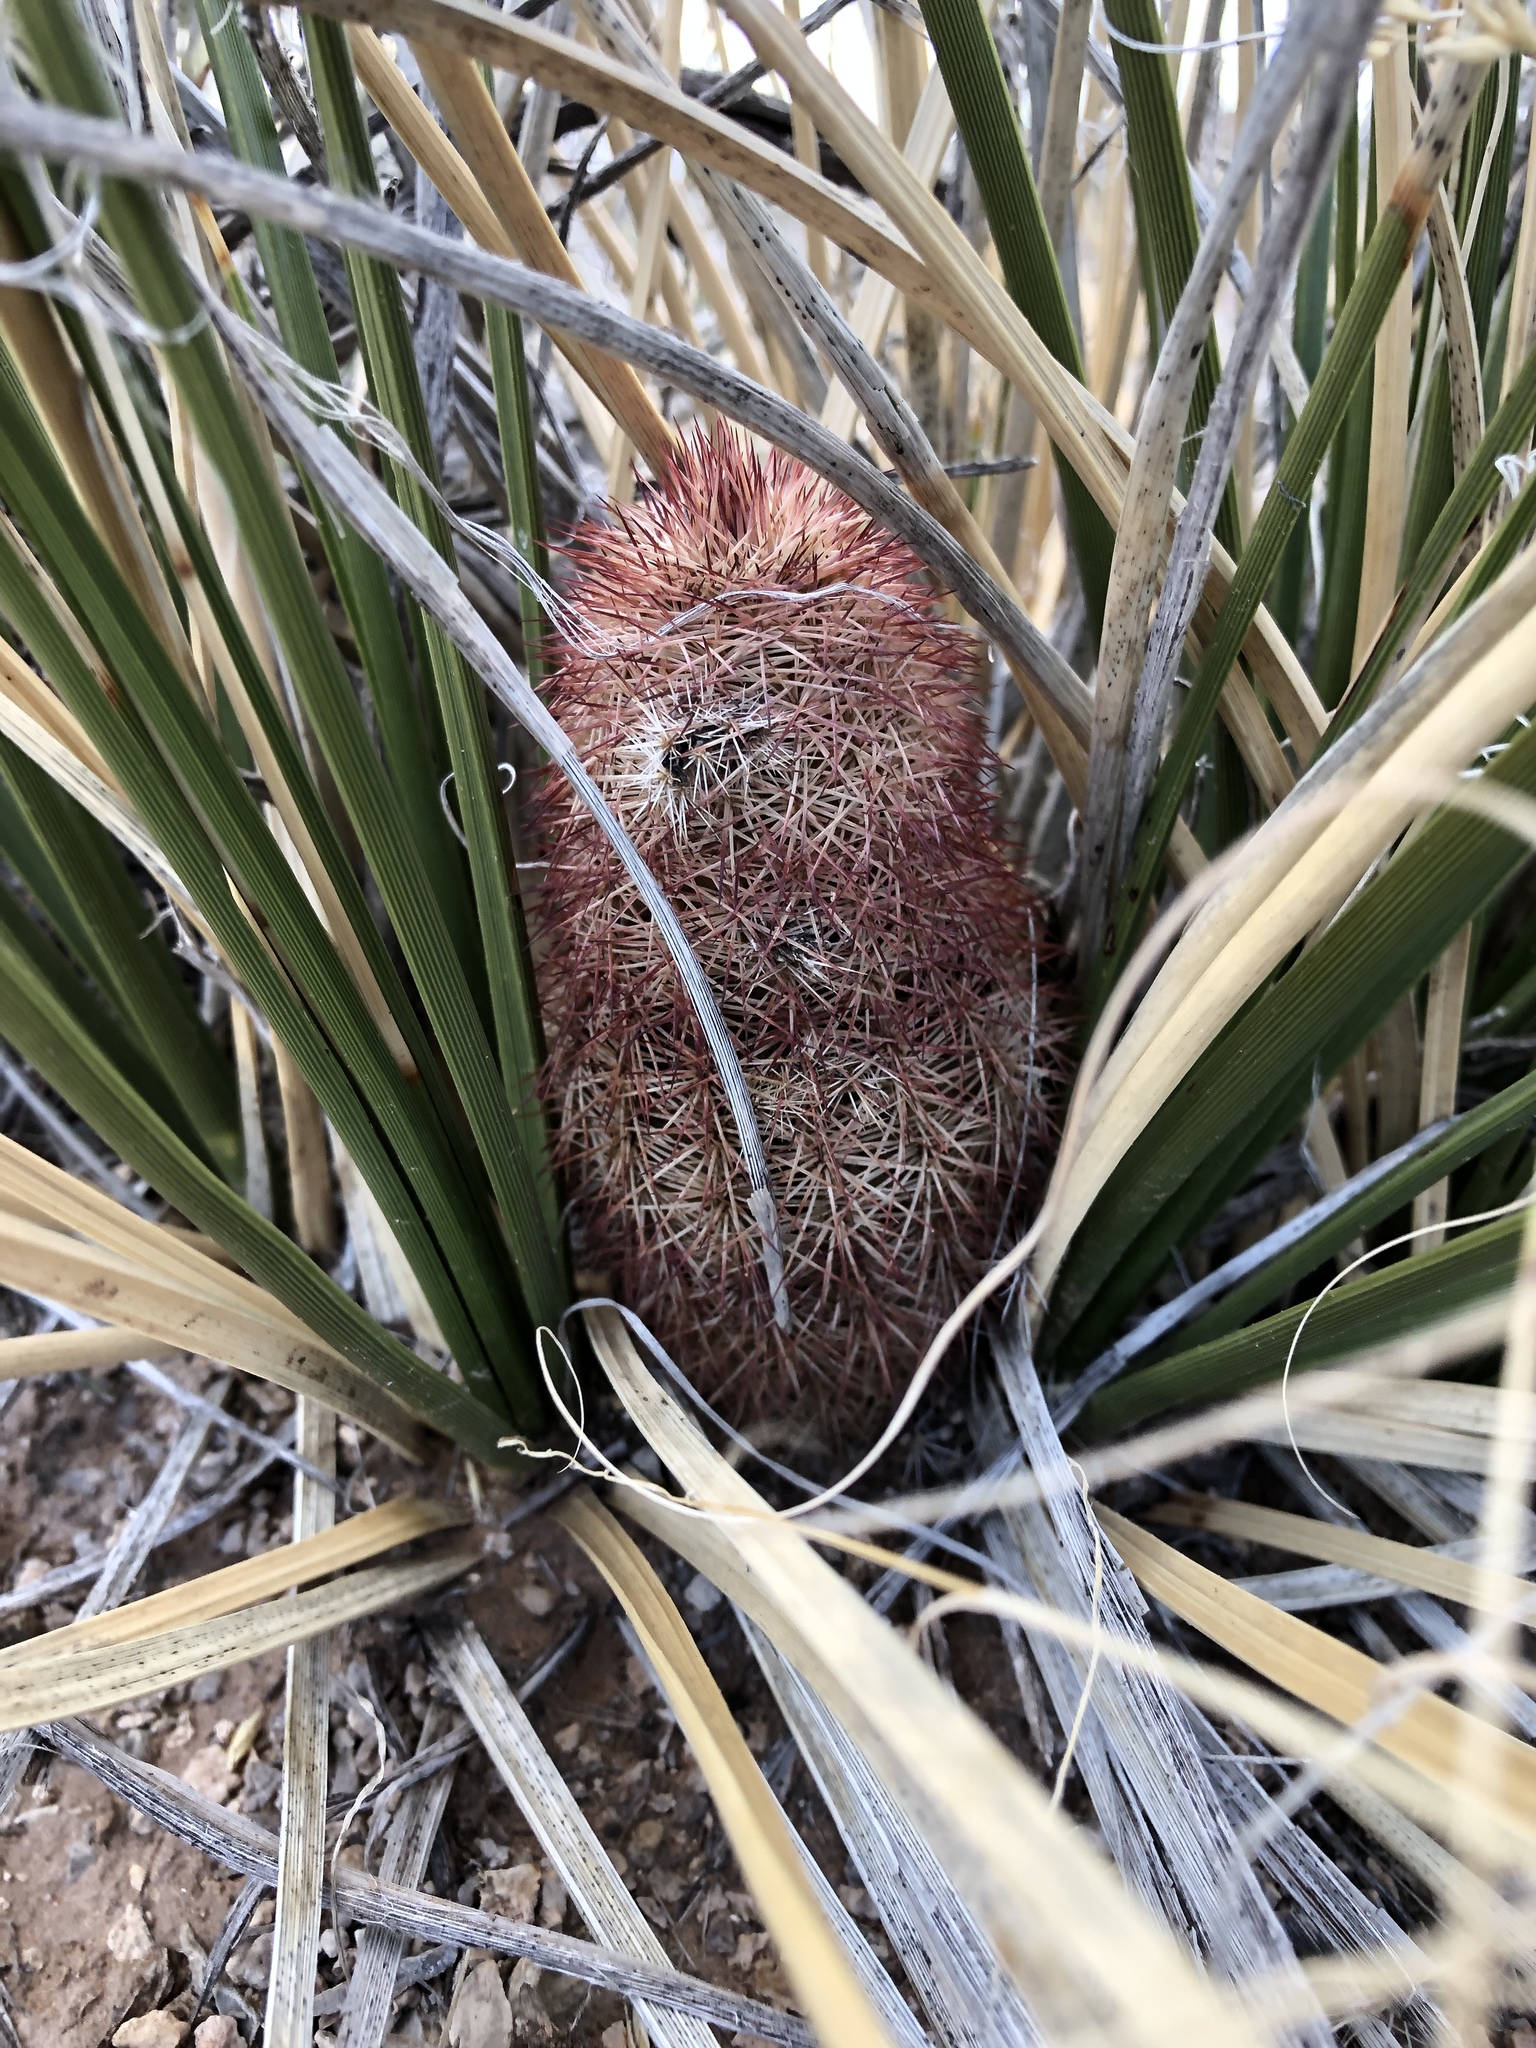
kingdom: Plantae
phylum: Tracheophyta
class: Magnoliopsida
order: Caryophyllales
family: Cactaceae
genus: Echinocereus
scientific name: Echinocereus dasyacanthus
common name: Spiny hedgehog cactus
